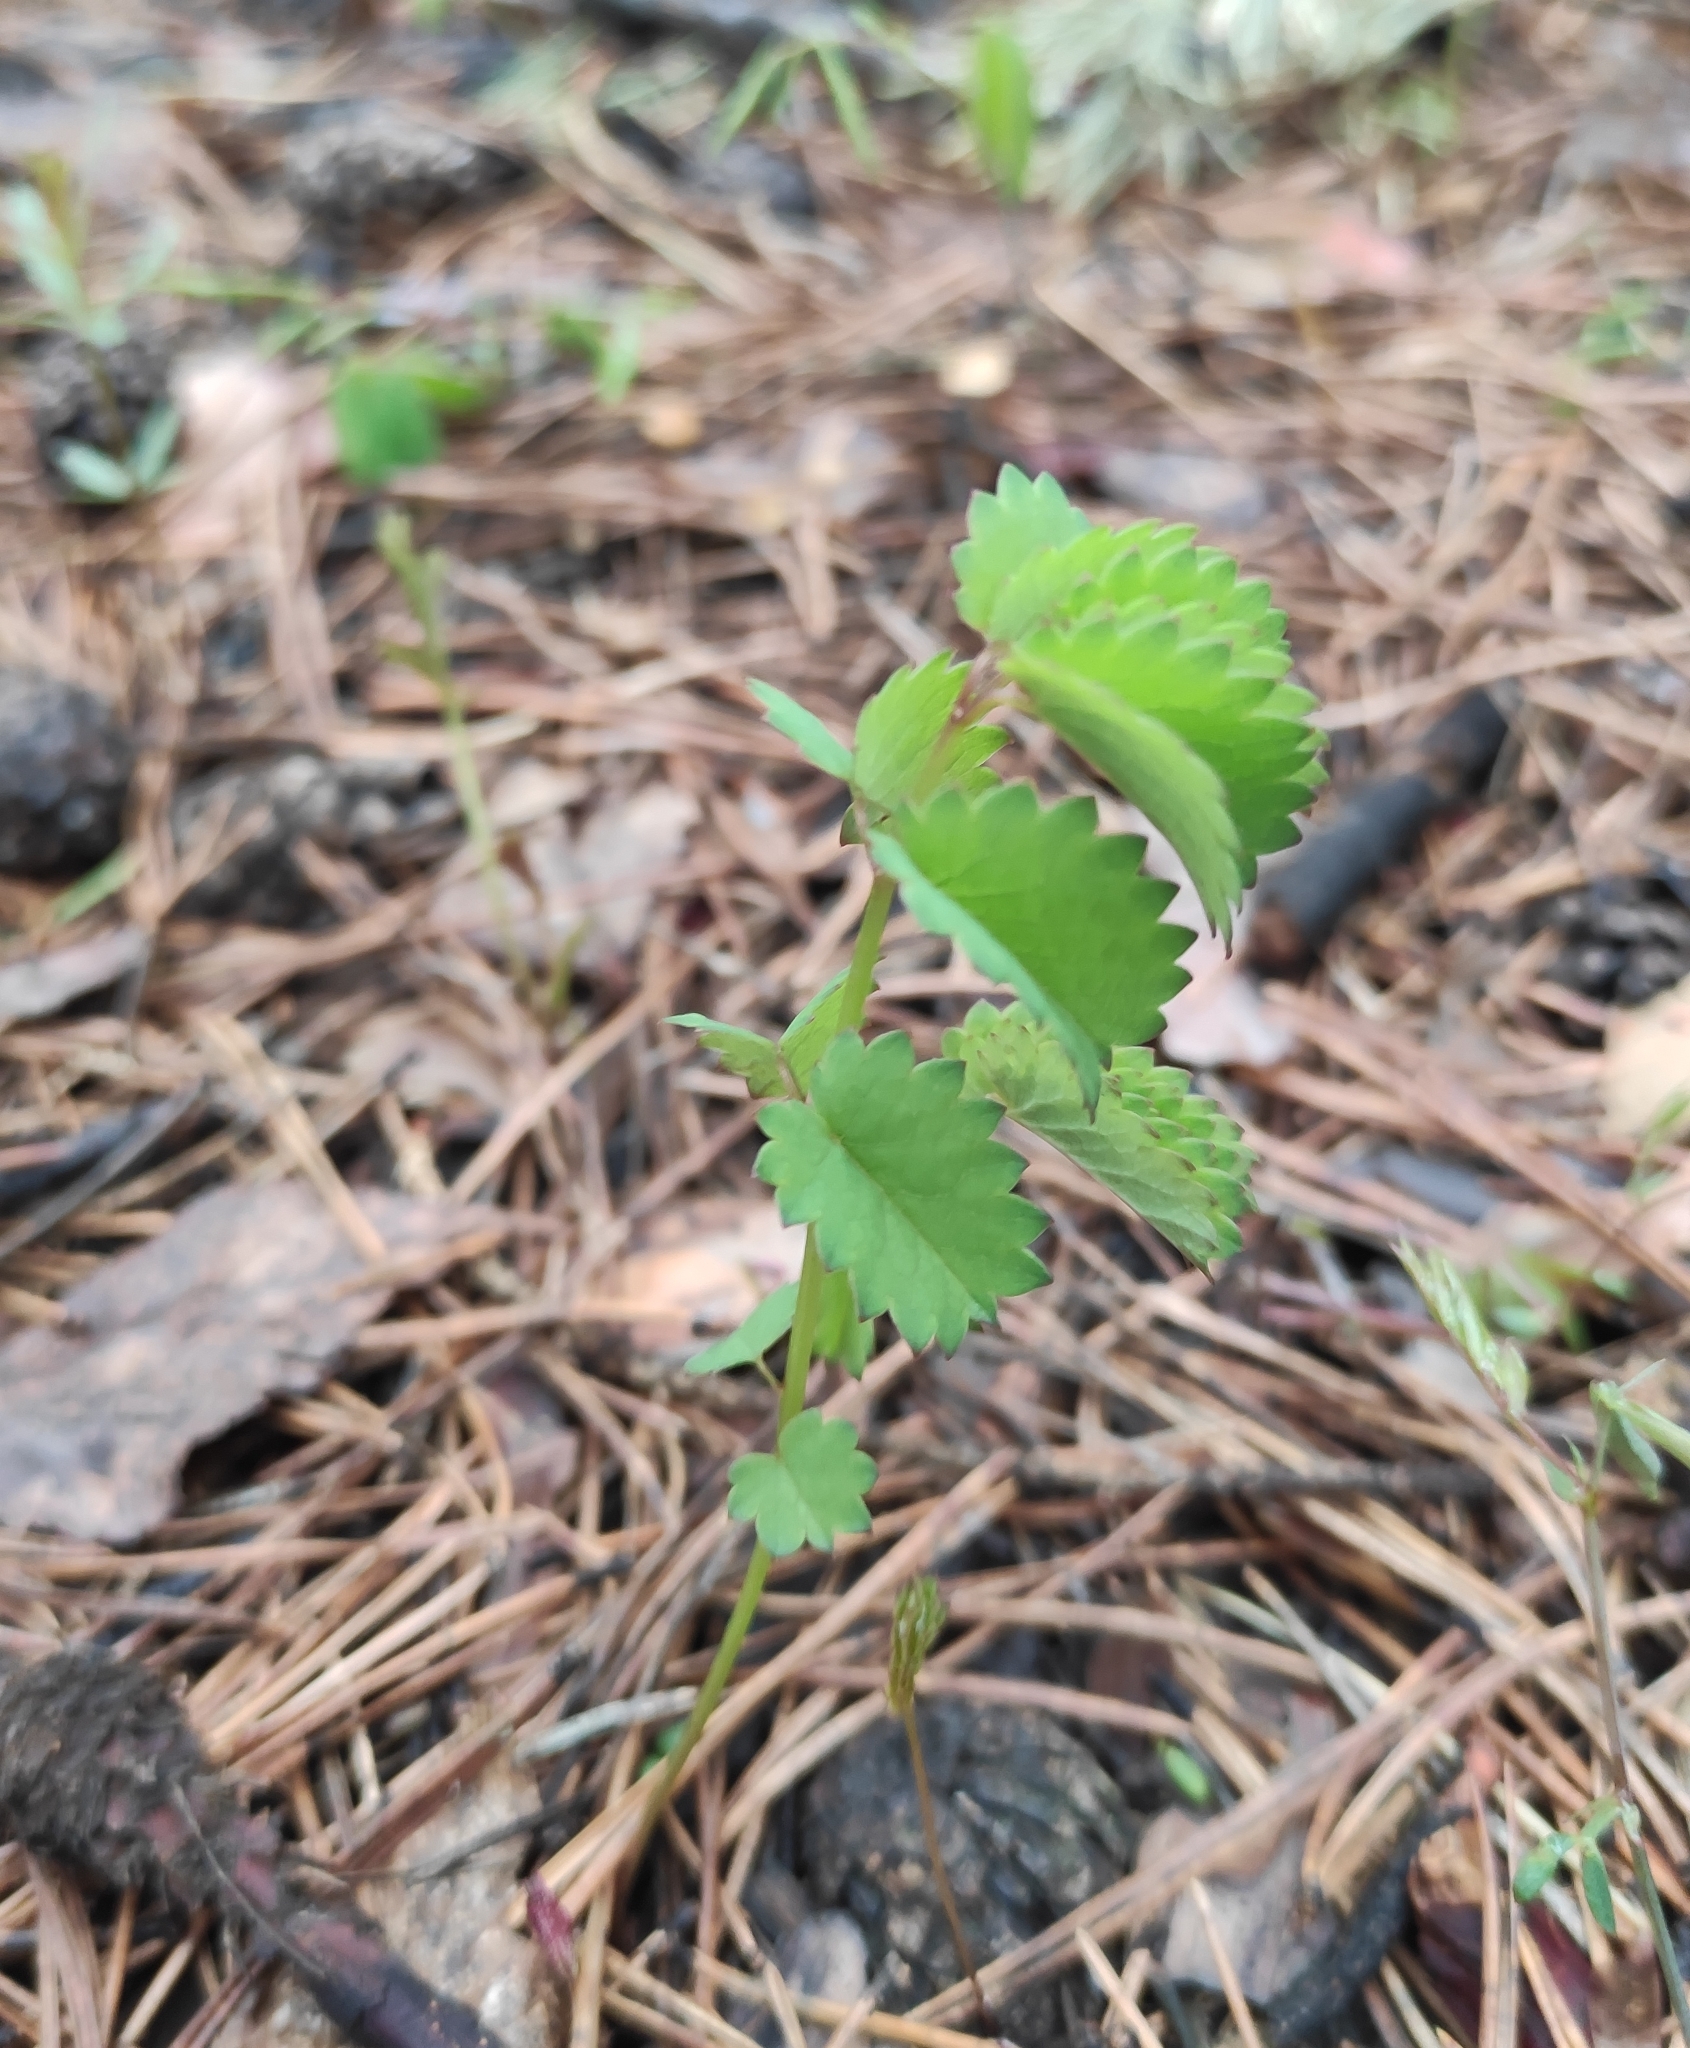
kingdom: Plantae
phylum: Tracheophyta
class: Magnoliopsida
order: Rosales
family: Rosaceae
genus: Sanguisorba
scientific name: Sanguisorba officinalis
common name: Great burnet
